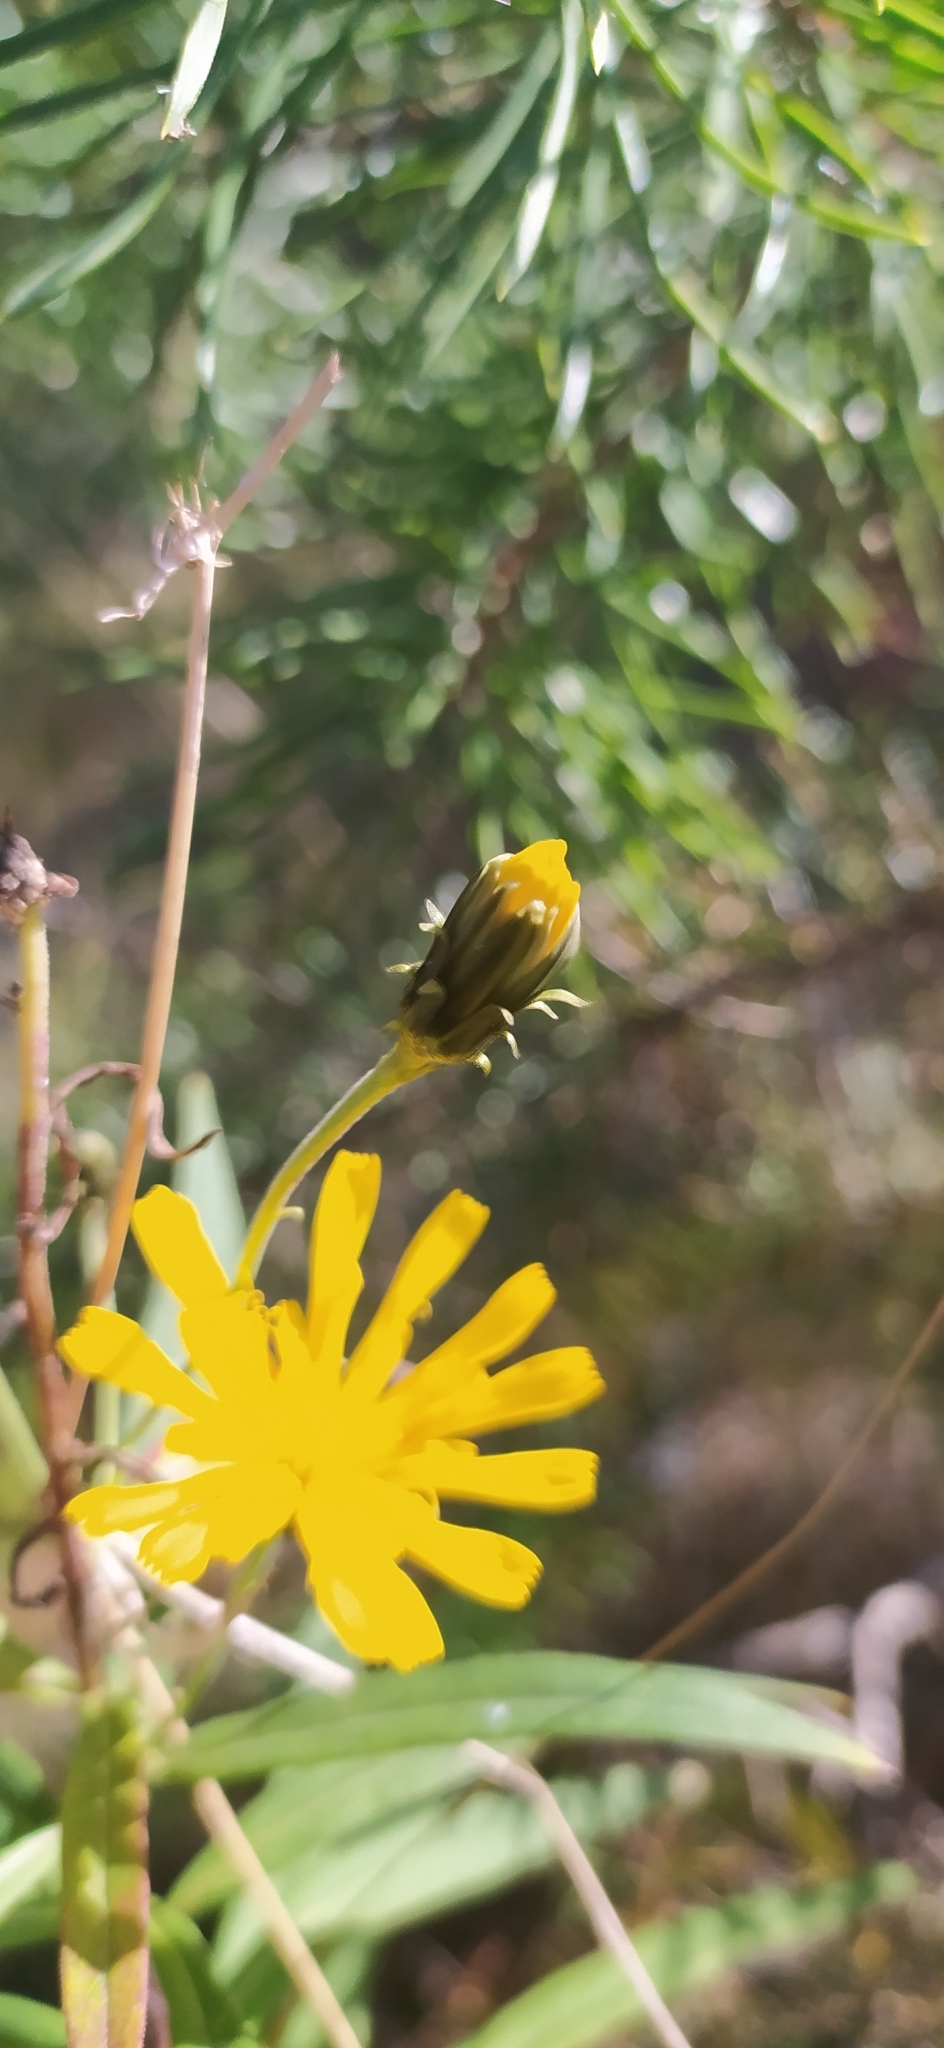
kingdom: Plantae
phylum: Tracheophyta
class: Magnoliopsida
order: Asterales
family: Asteraceae
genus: Hieracium
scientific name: Hieracium umbellatum
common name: Northern hawkweed
